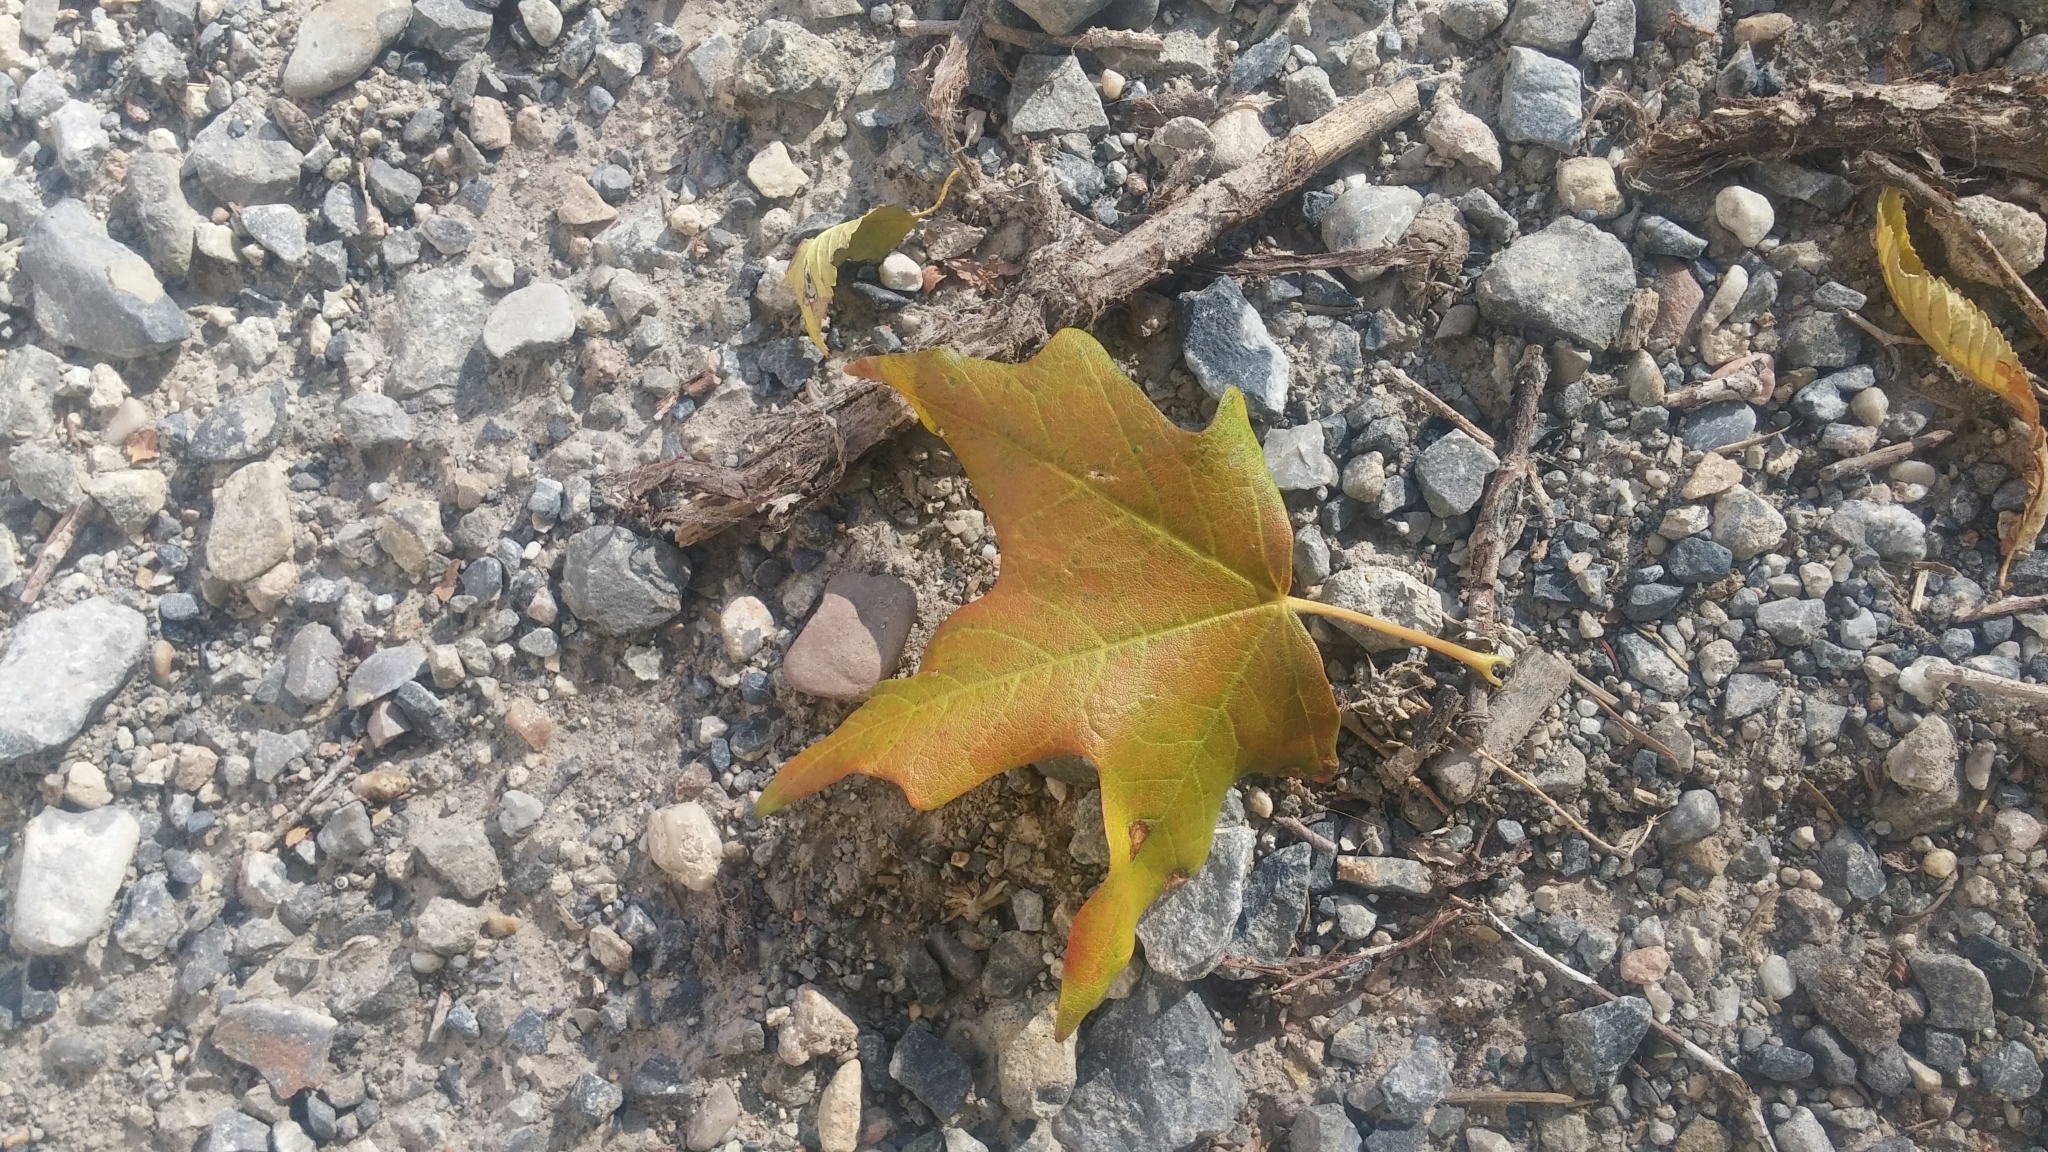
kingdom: Plantae
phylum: Tracheophyta
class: Magnoliopsida
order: Sapindales
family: Sapindaceae
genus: Acer
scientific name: Acer grandidentatum
